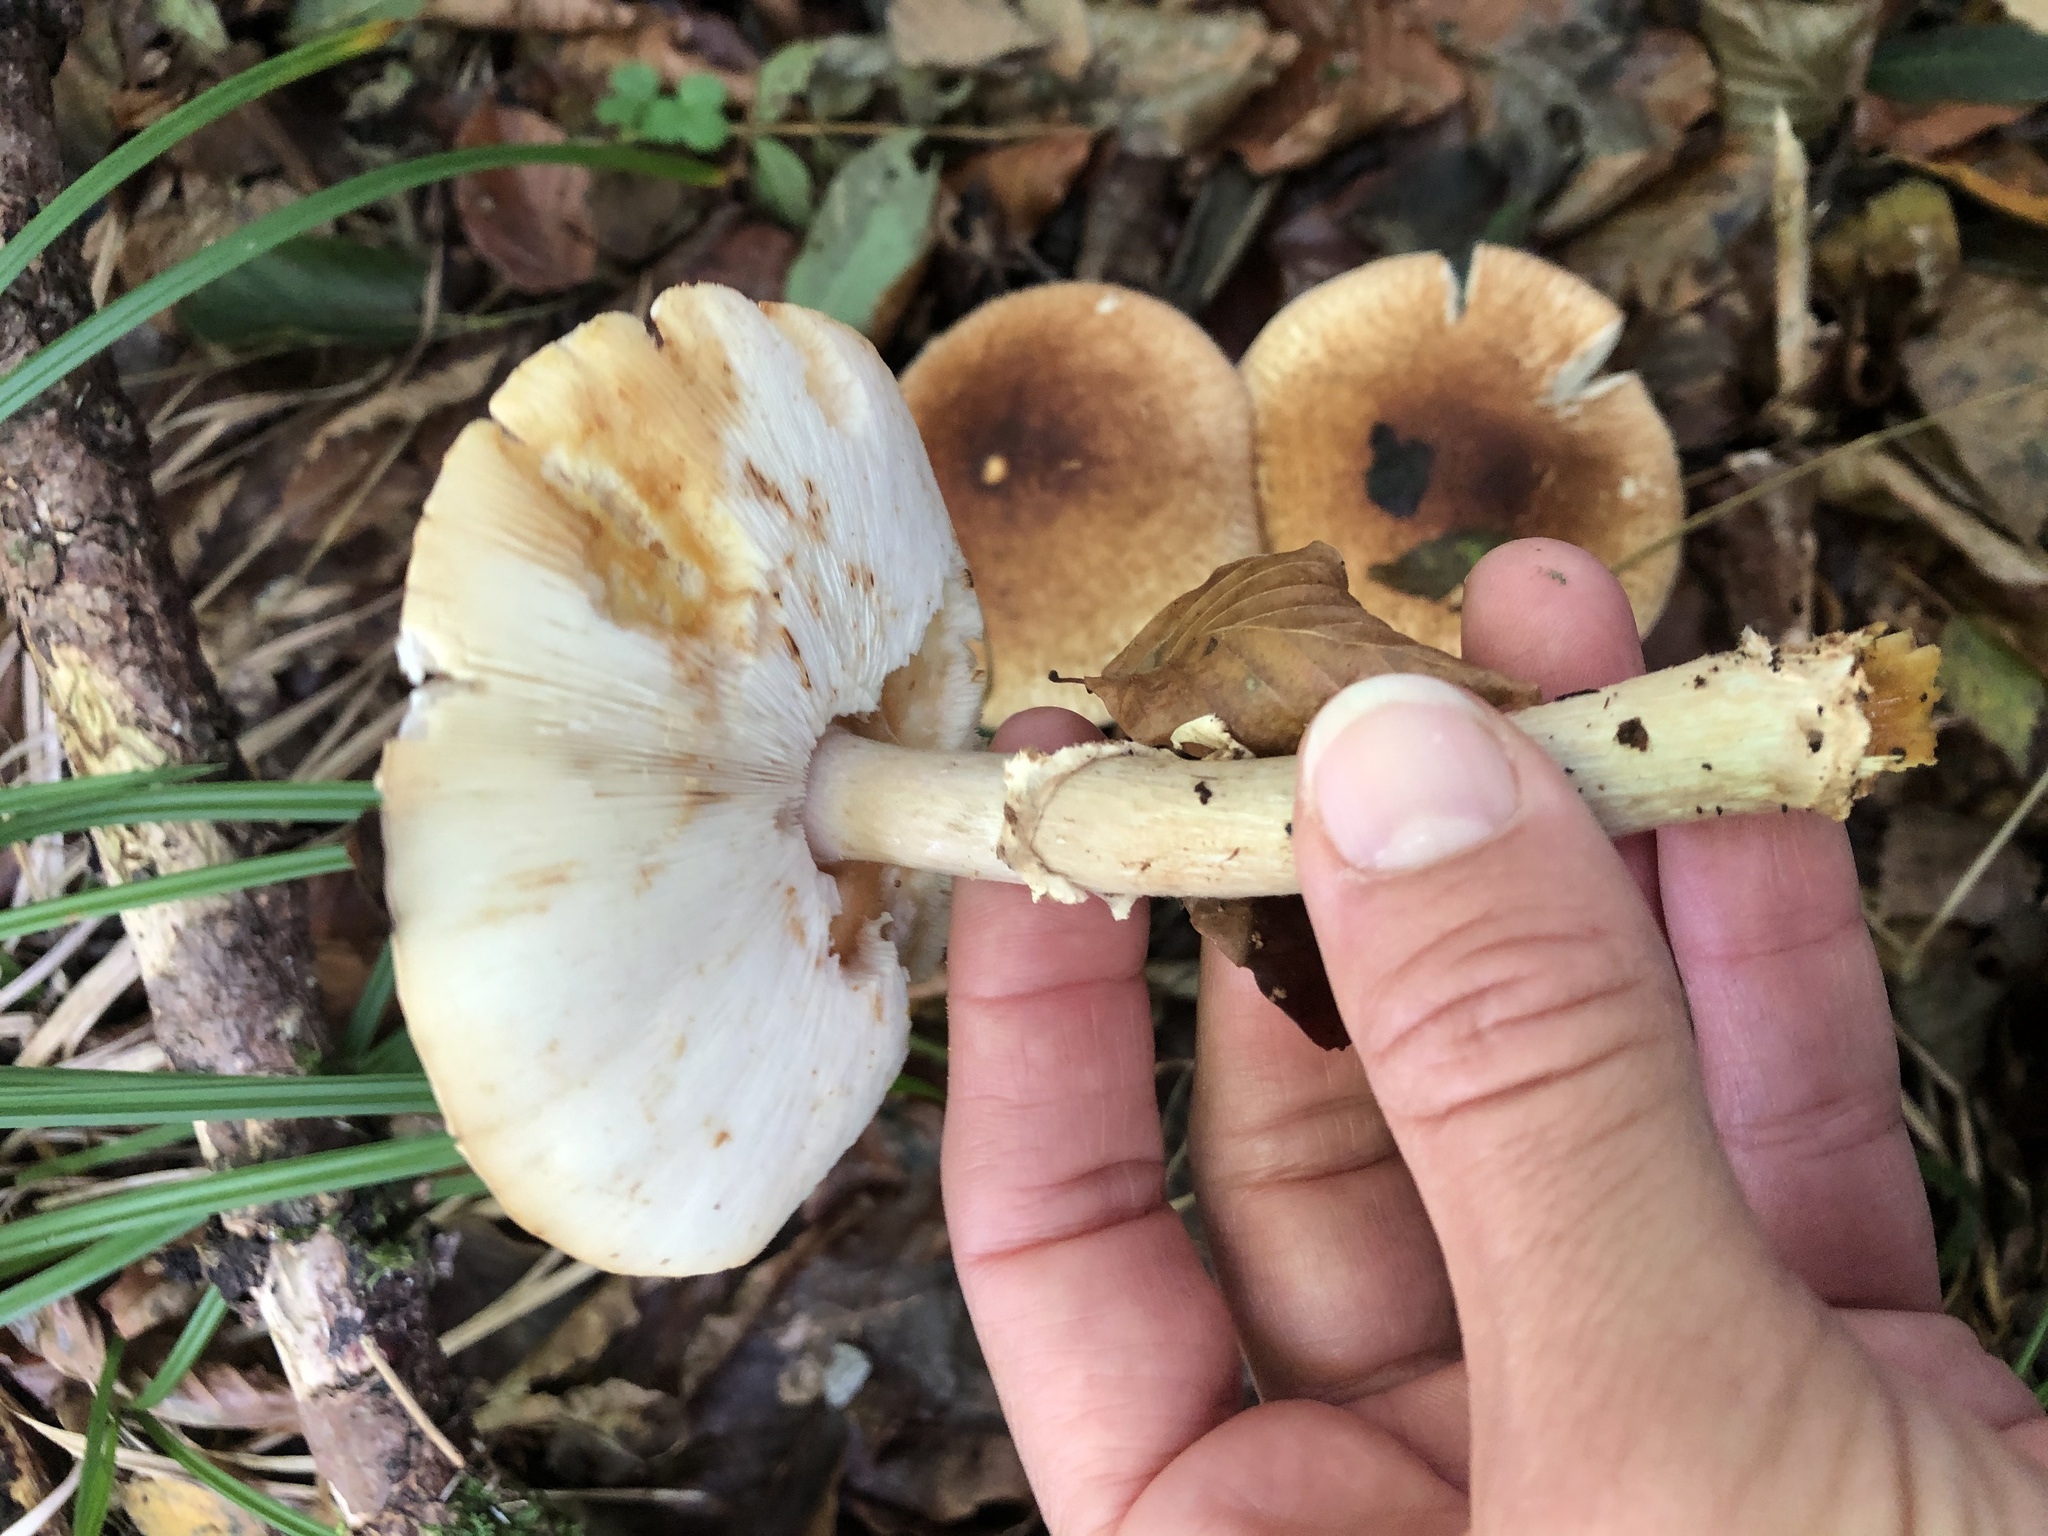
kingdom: Fungi
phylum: Basidiomycota
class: Agaricomycetes
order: Agaricales
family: Agaricaceae
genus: Echinoderma
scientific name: Echinoderma asperum
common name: Freckled dapperling
